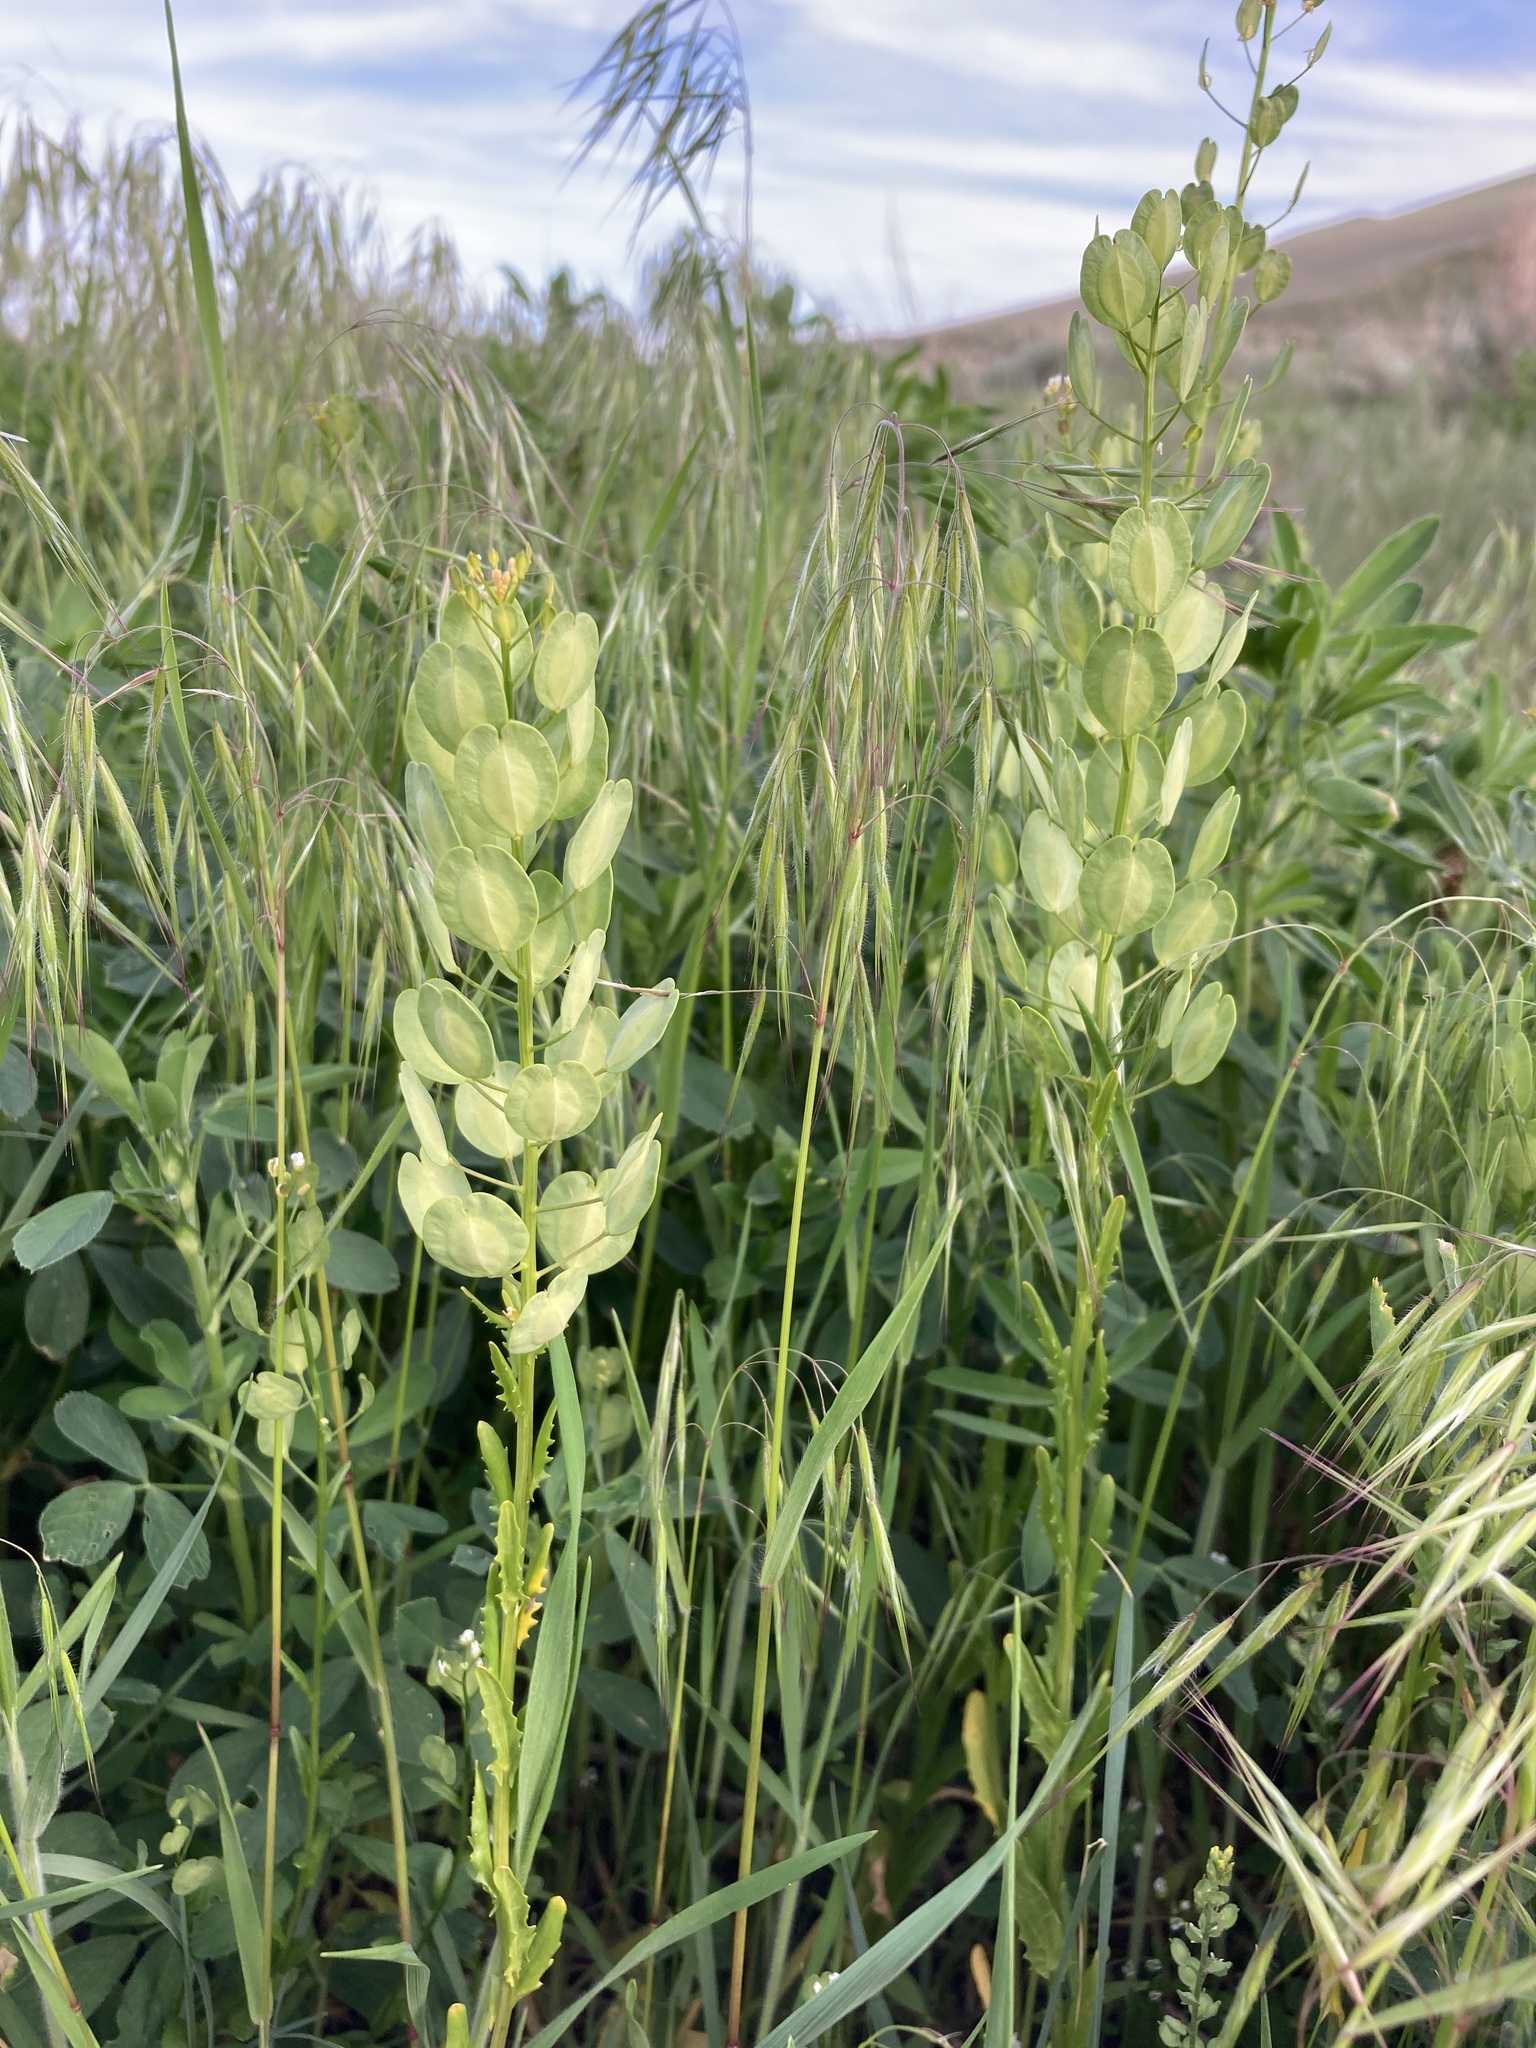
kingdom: Plantae
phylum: Tracheophyta
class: Magnoliopsida
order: Brassicales
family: Brassicaceae
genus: Thlaspi
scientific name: Thlaspi arvense
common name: Field pennycress
